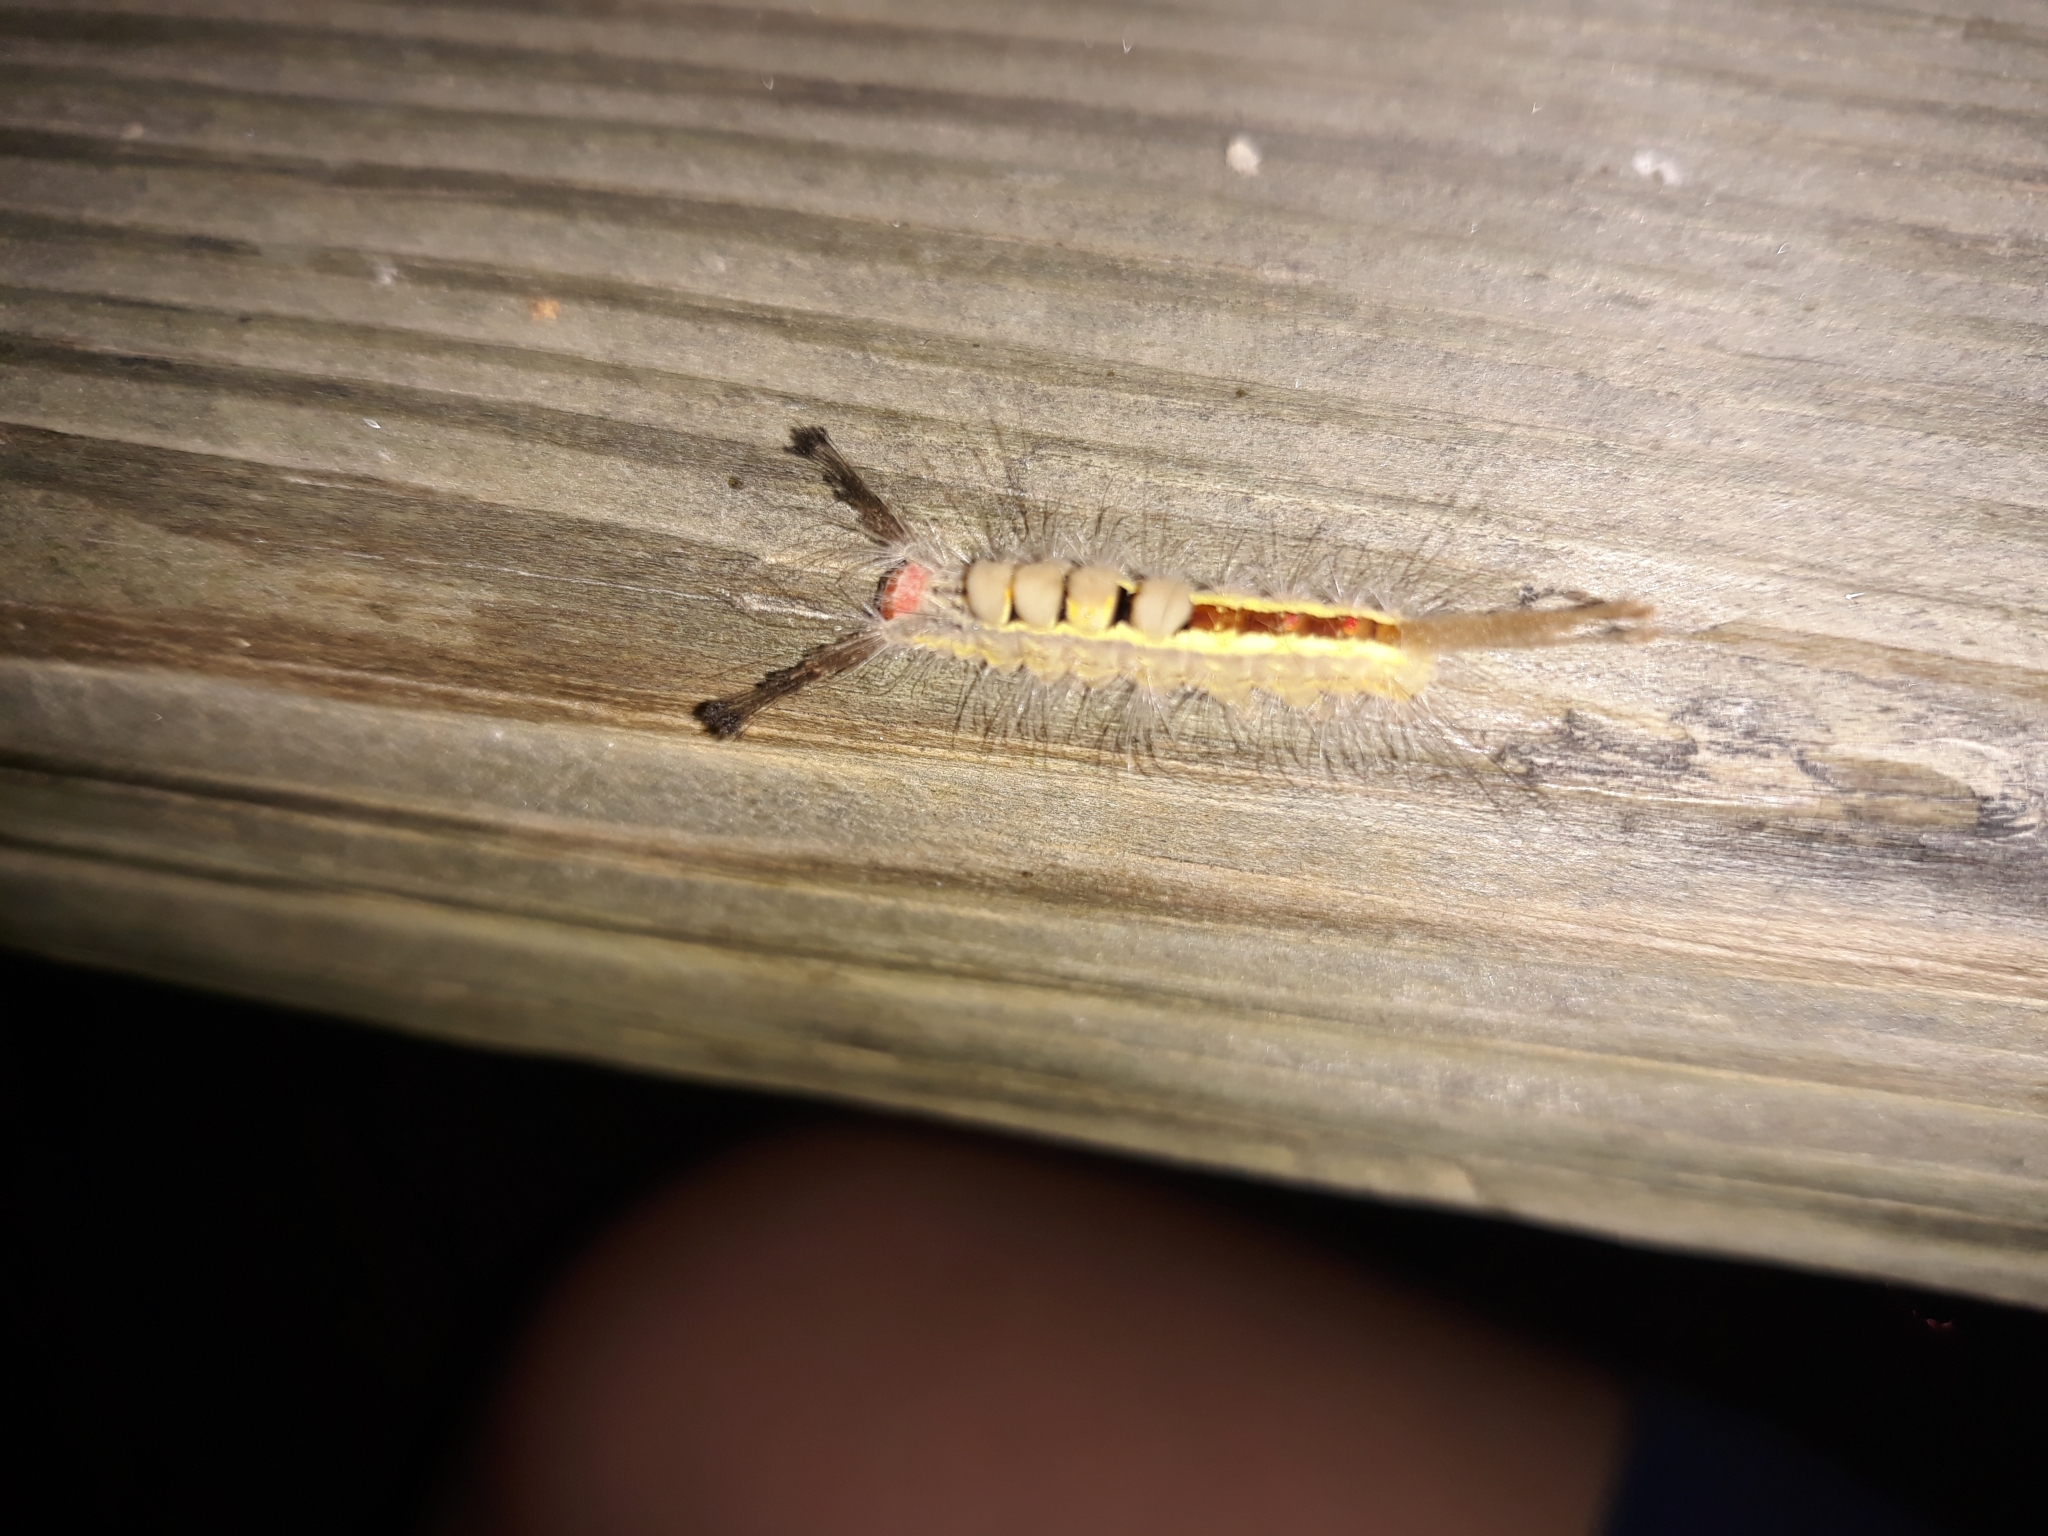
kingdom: Animalia
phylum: Arthropoda
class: Insecta
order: Lepidoptera
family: Erebidae
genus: Orgyia
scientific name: Orgyia leucostigma
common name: White-marked tussock moth
